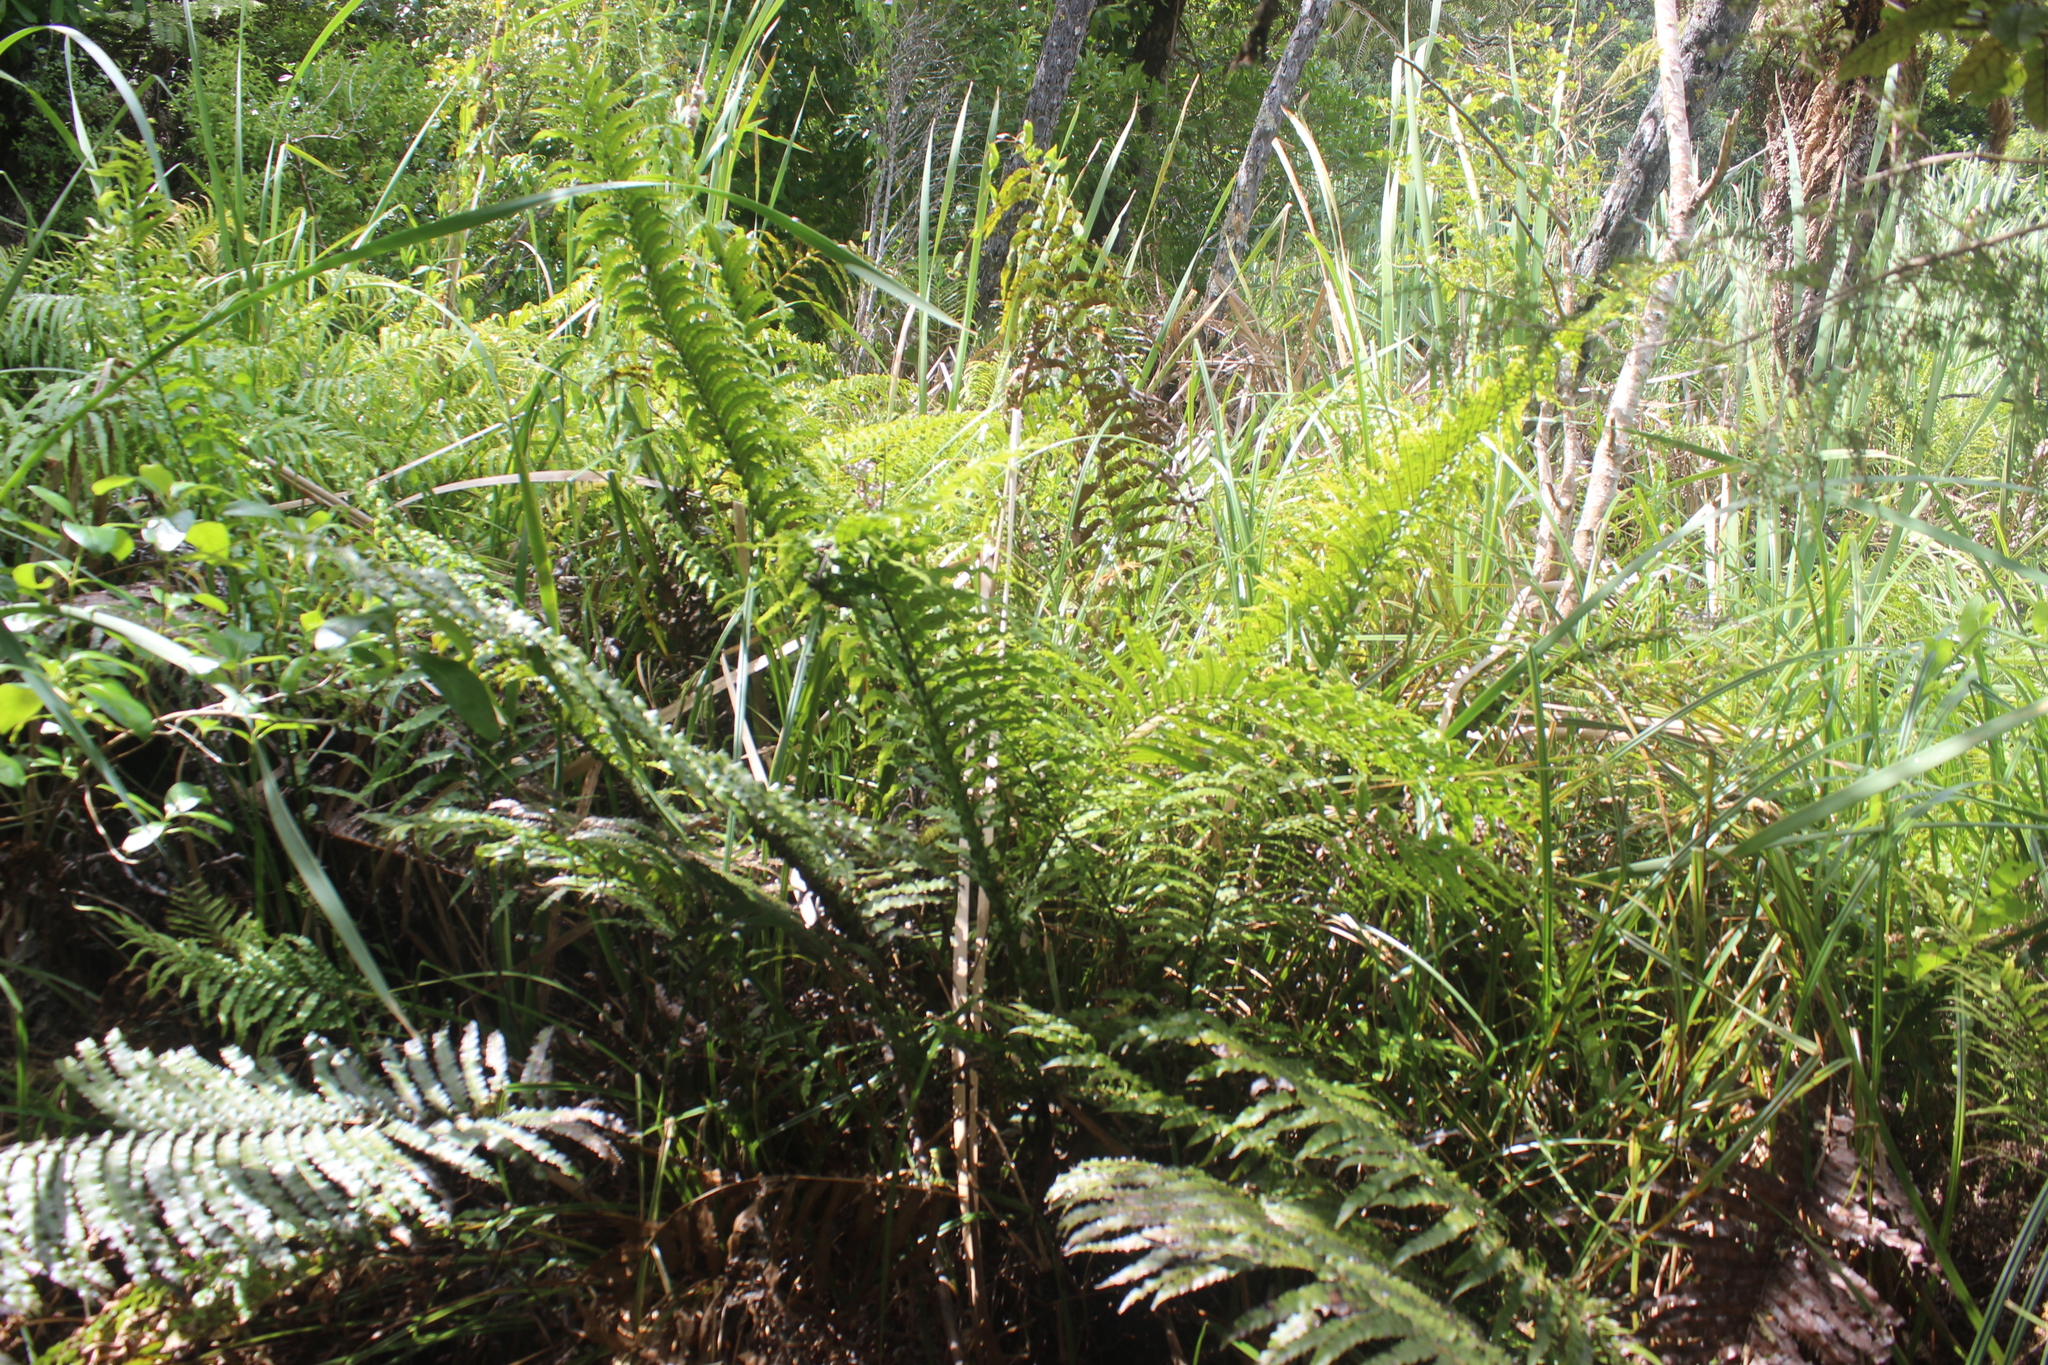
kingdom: Plantae
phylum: Tracheophyta
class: Polypodiopsida
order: Polypodiales
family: Blechnaceae
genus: Parablechnum
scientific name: Parablechnum minus
